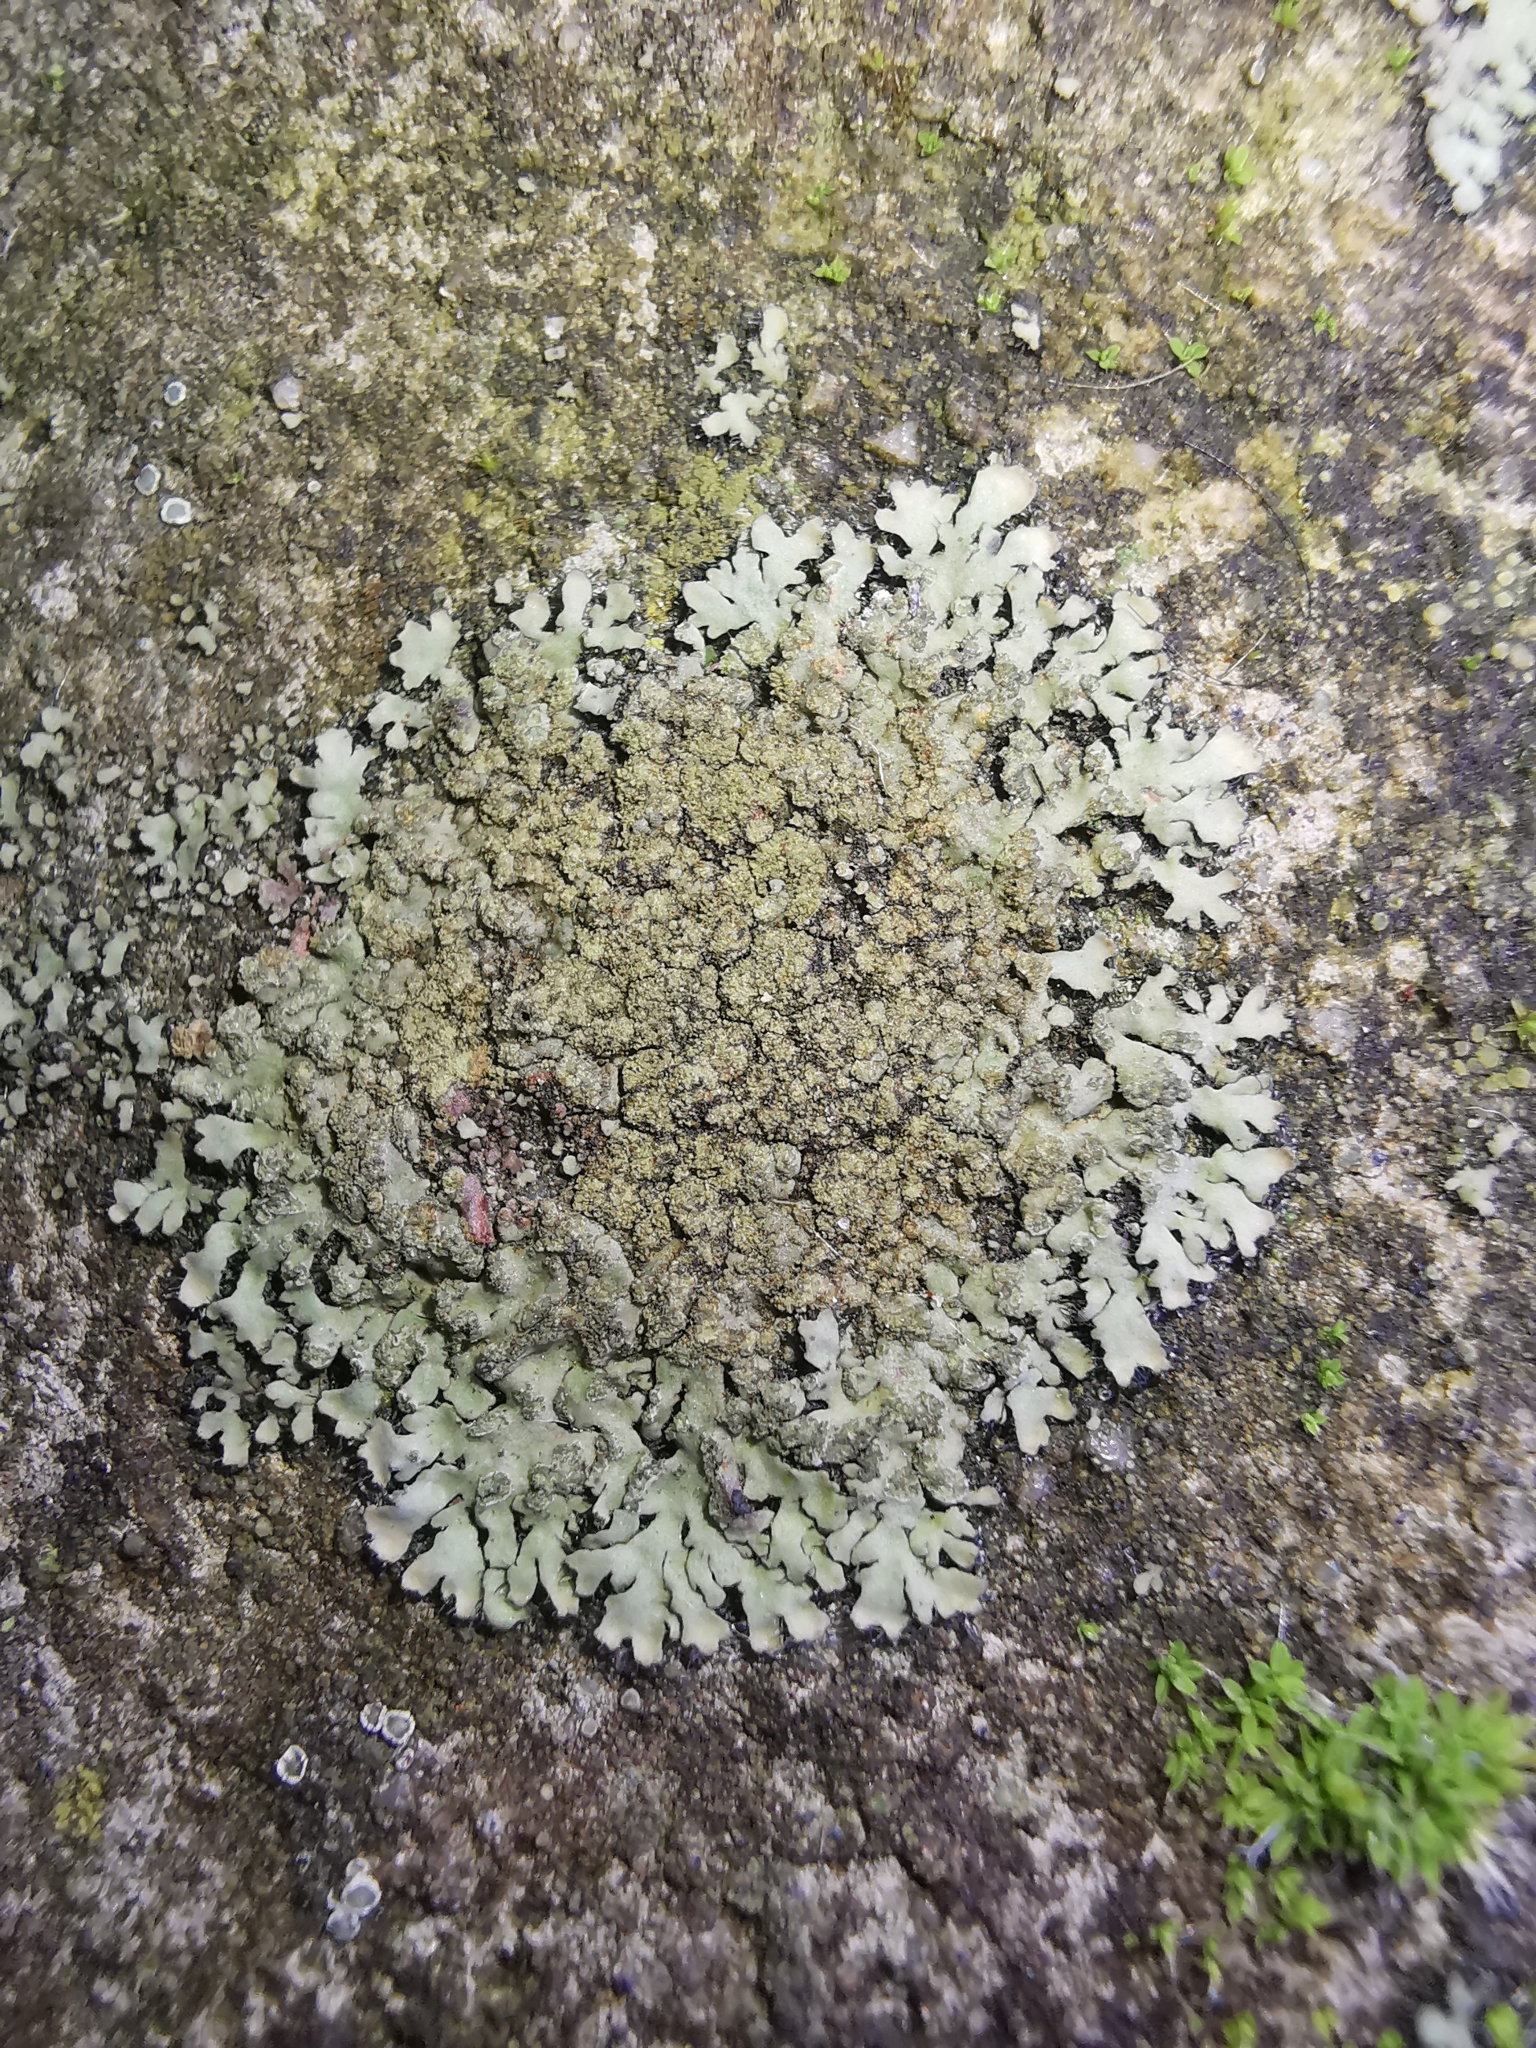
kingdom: Fungi
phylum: Ascomycota
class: Lecanoromycetes
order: Caliciales
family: Physciaceae
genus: Phaeophyscia
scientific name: Phaeophyscia orbicularis
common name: Mealy shadow lichen
